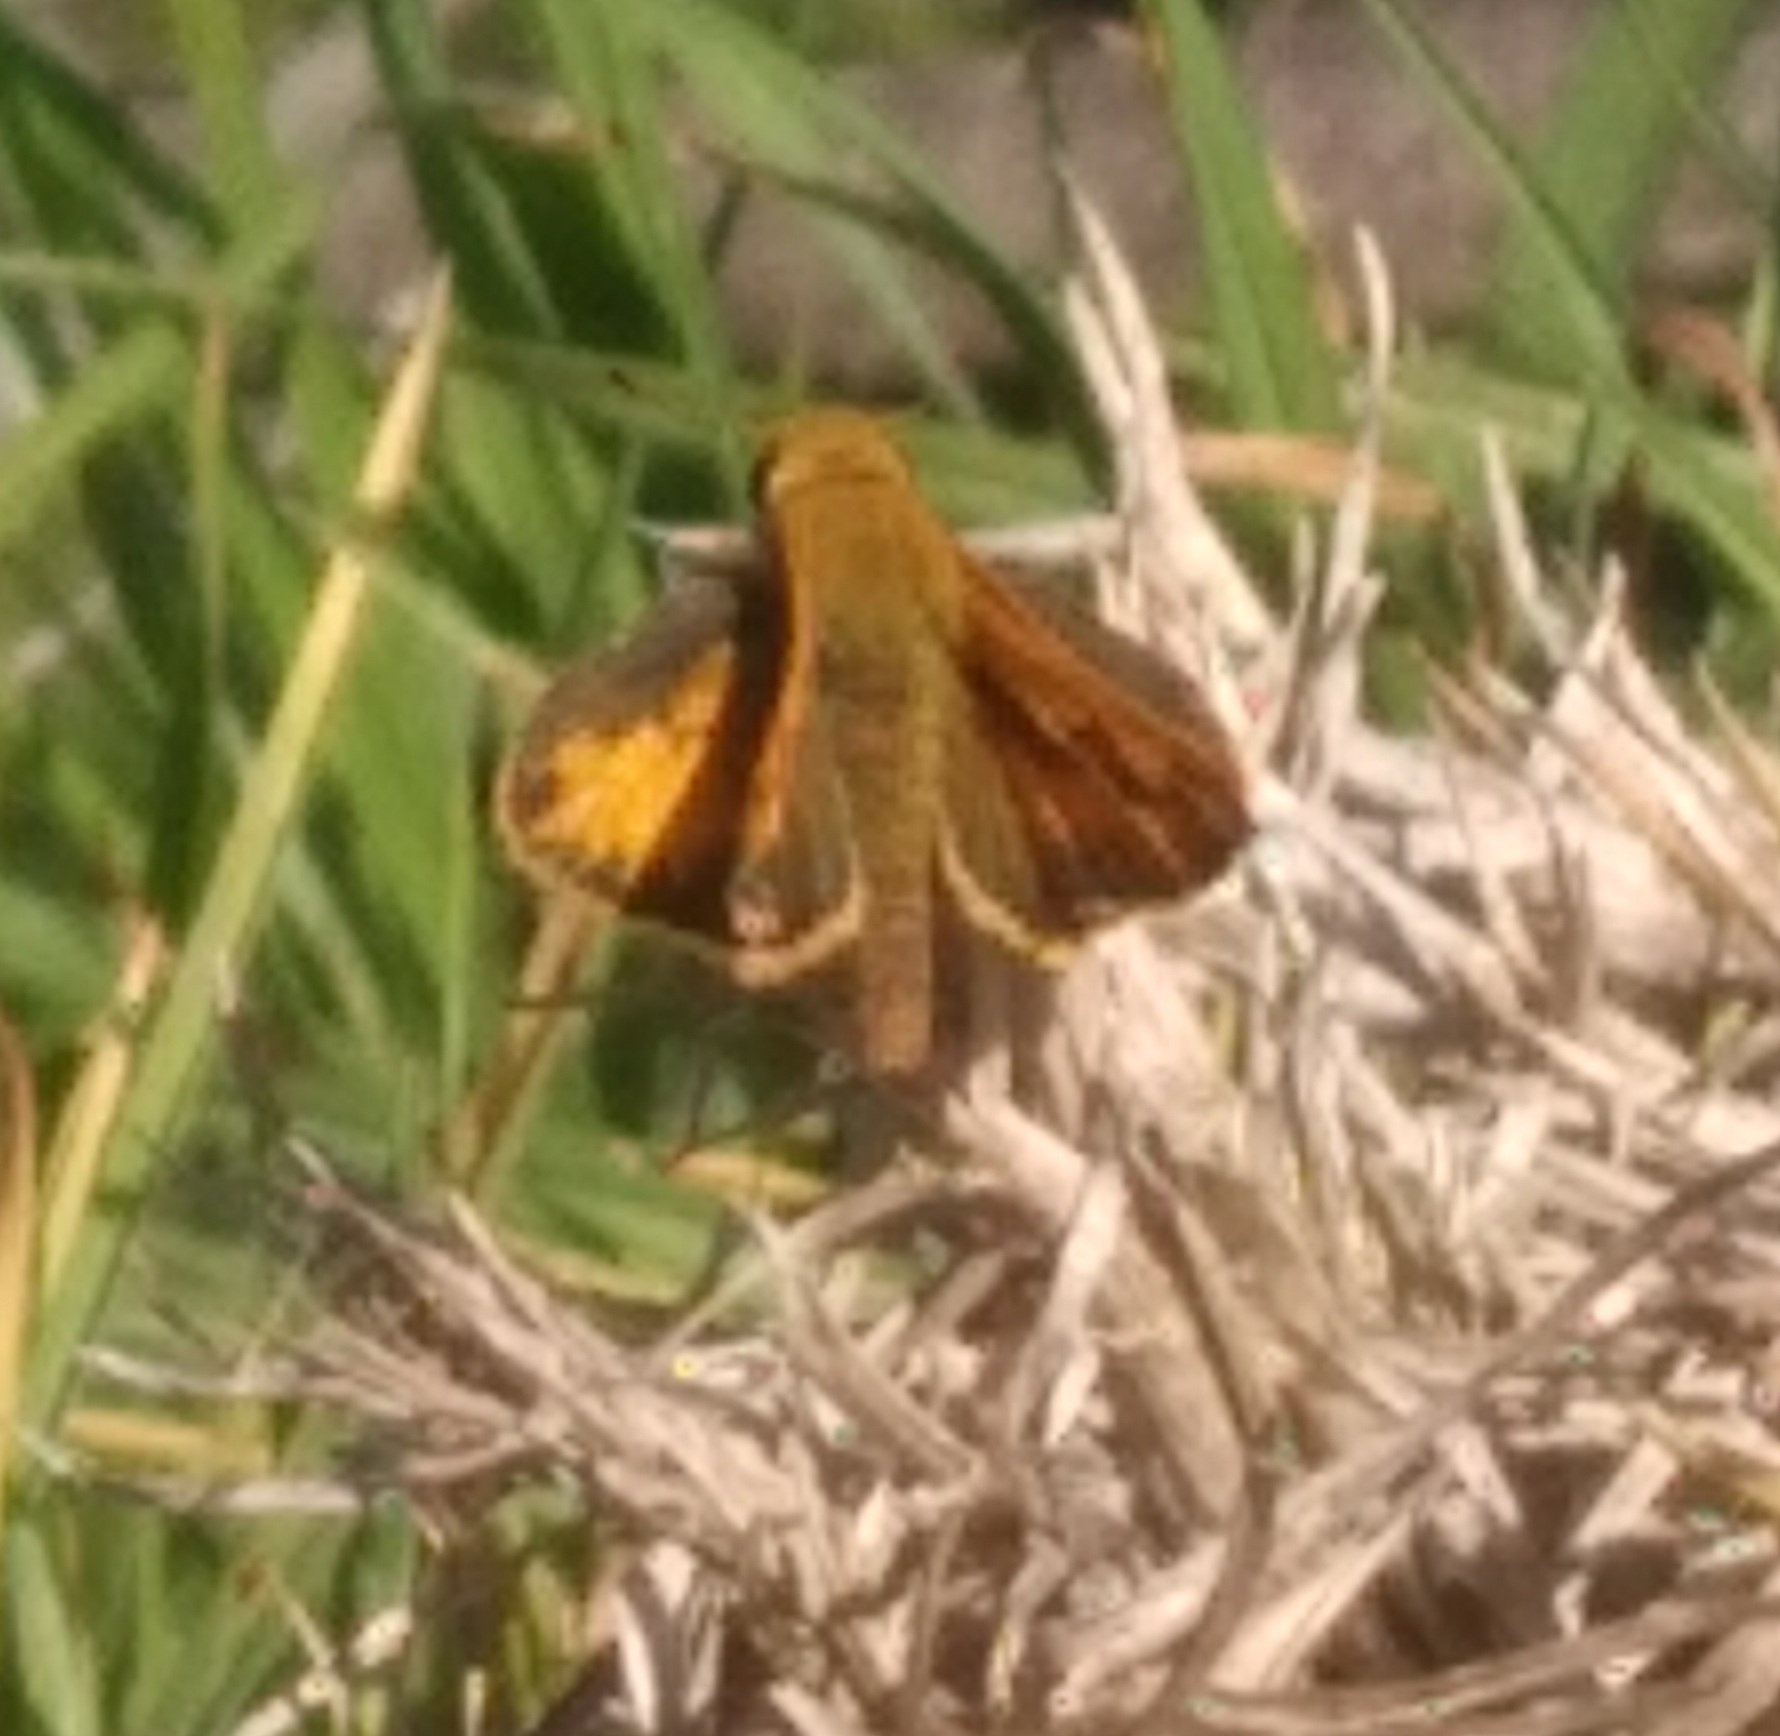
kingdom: Animalia
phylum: Arthropoda
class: Insecta
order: Lepidoptera
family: Hesperiidae
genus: Hylephila
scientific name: Hylephila phyleus
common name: Fiery skipper
